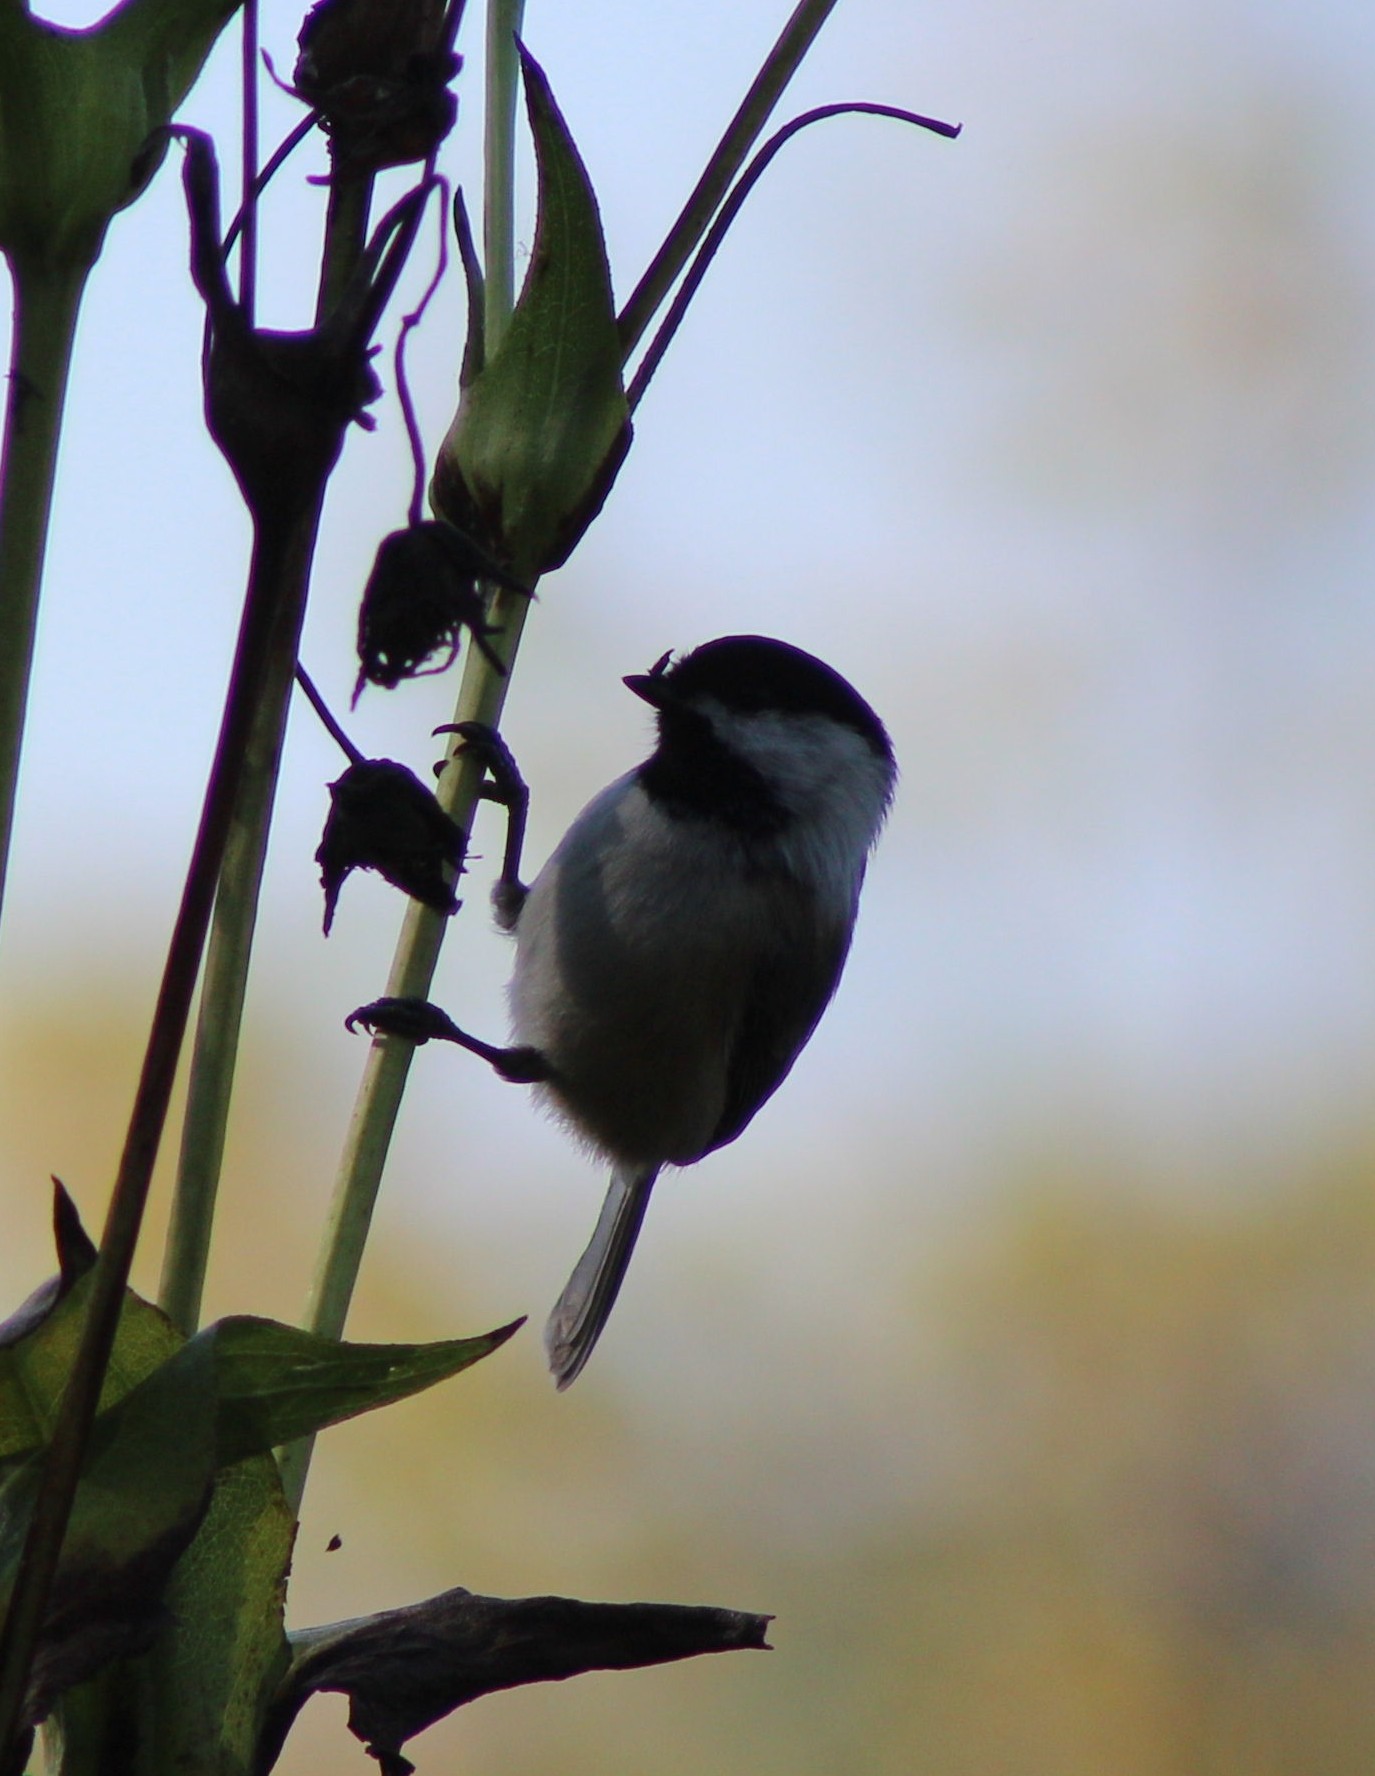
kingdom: Animalia
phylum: Chordata
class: Aves
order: Passeriformes
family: Paridae
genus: Poecile
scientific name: Poecile atricapillus
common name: Black-capped chickadee
